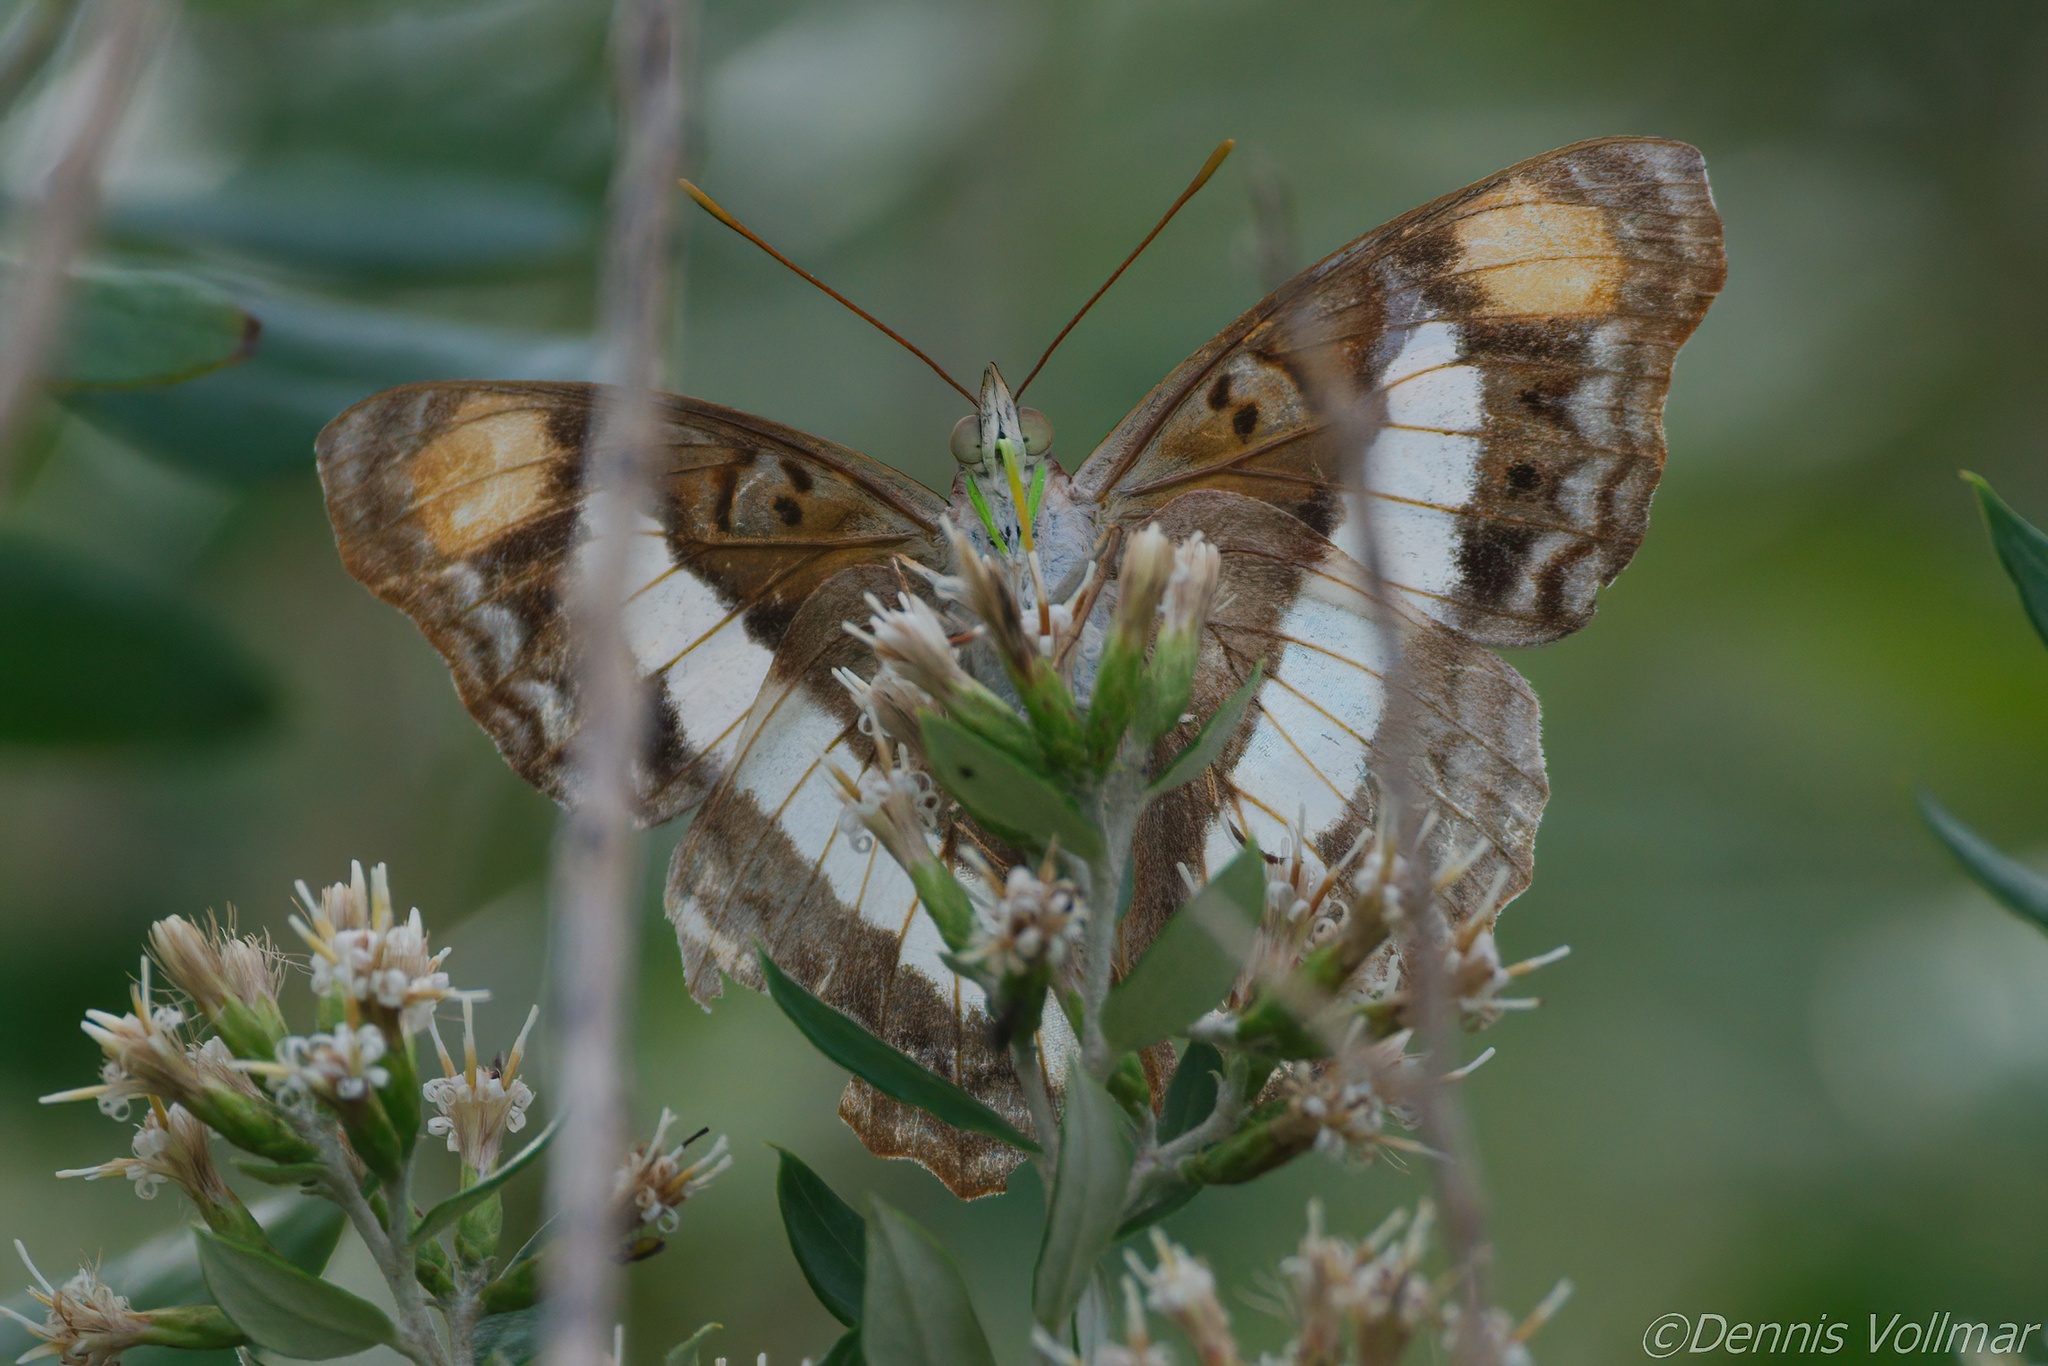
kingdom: Animalia
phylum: Arthropoda
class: Insecta
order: Lepidoptera
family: Nymphalidae
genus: Doxocopa
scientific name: Doxocopa pavon
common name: Pavon emperor
